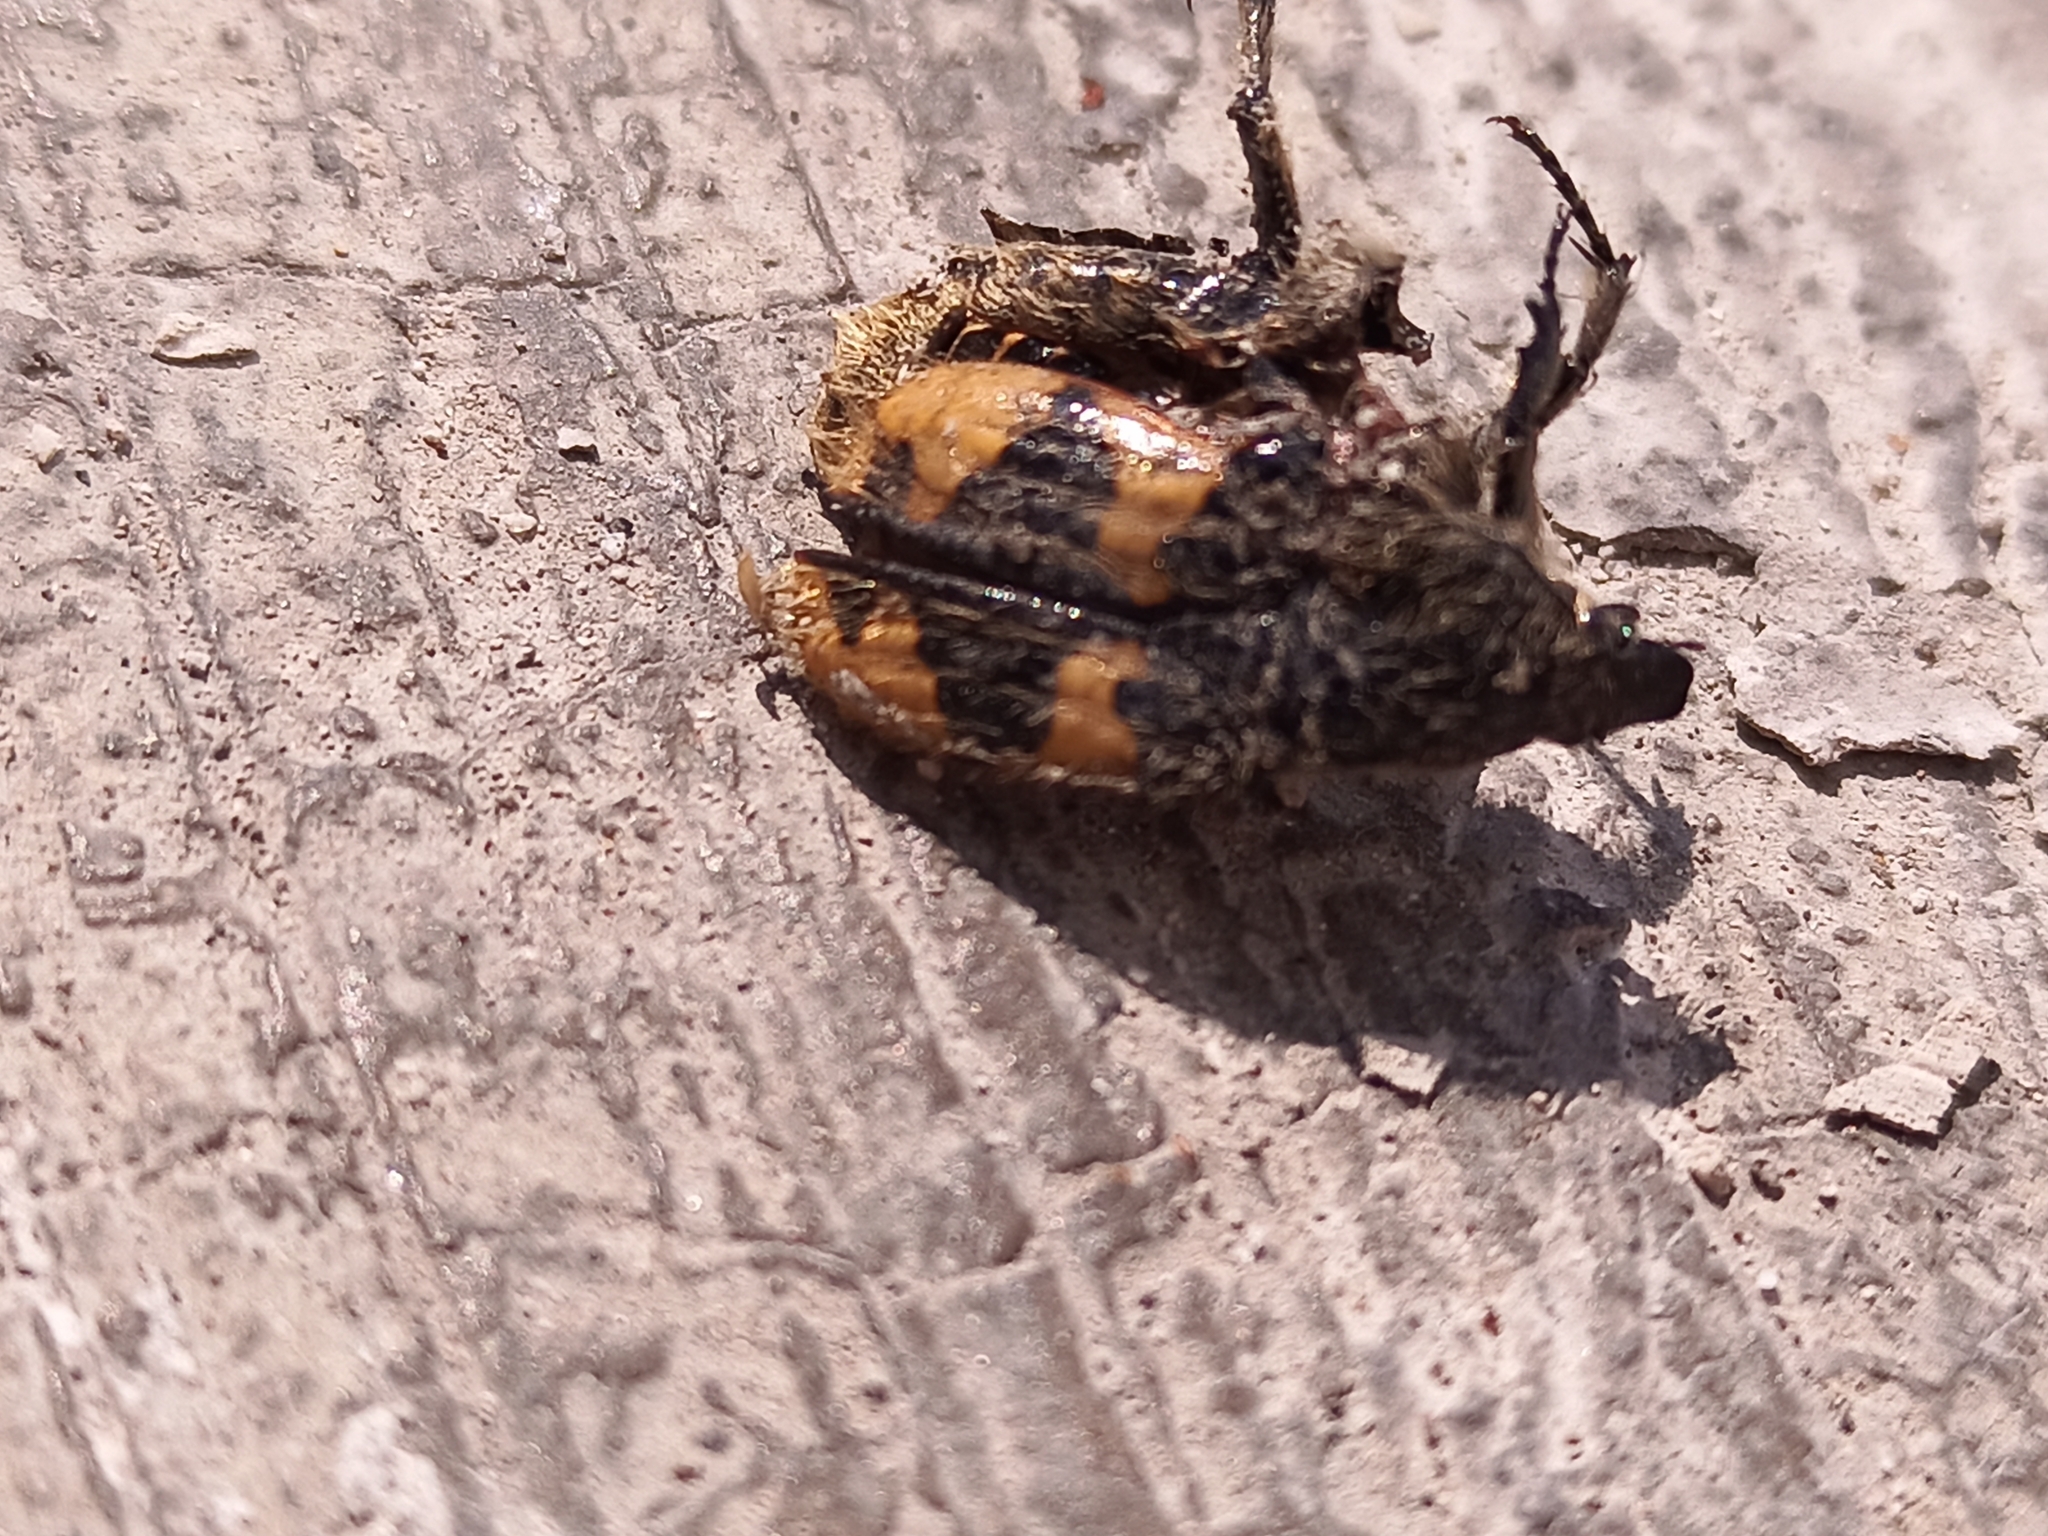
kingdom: Animalia
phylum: Arthropoda
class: Insecta
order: Coleoptera
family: Scarabaeidae
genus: Euphoria
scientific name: Euphoria basalis
